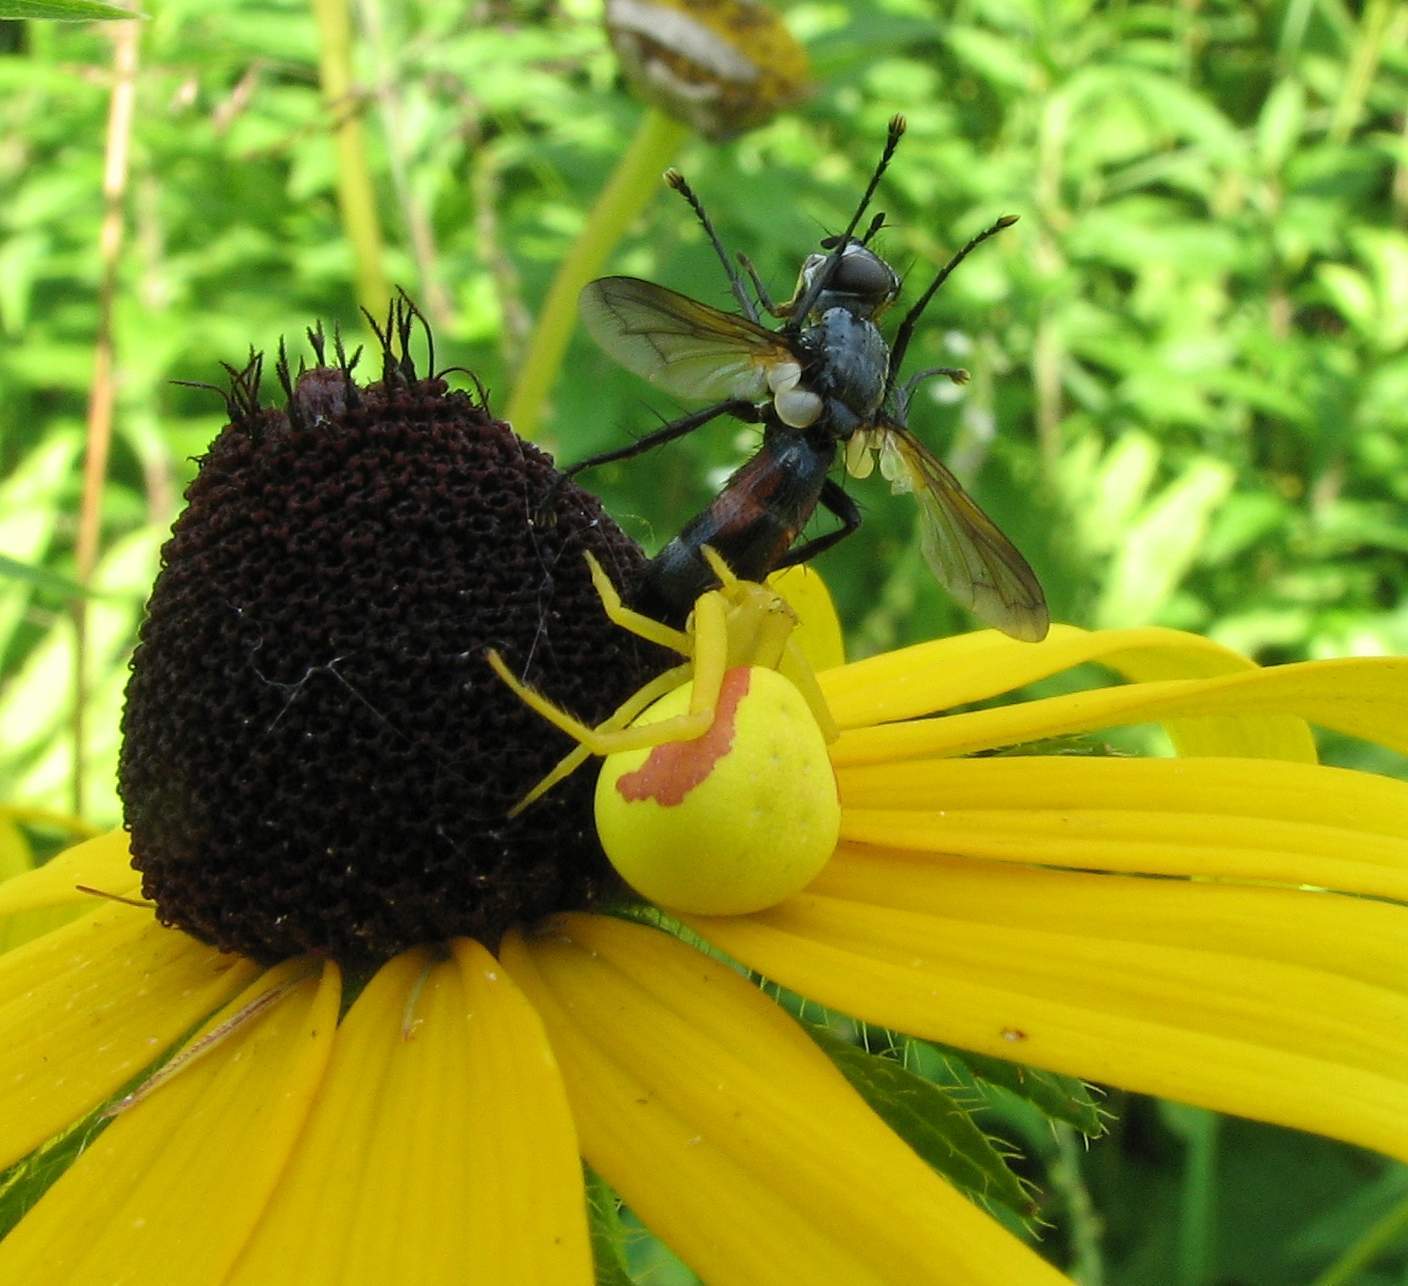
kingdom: Animalia
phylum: Arthropoda
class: Arachnida
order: Araneae
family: Thomisidae
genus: Misumena
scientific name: Misumena vatia
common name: Goldenrod crab spider
